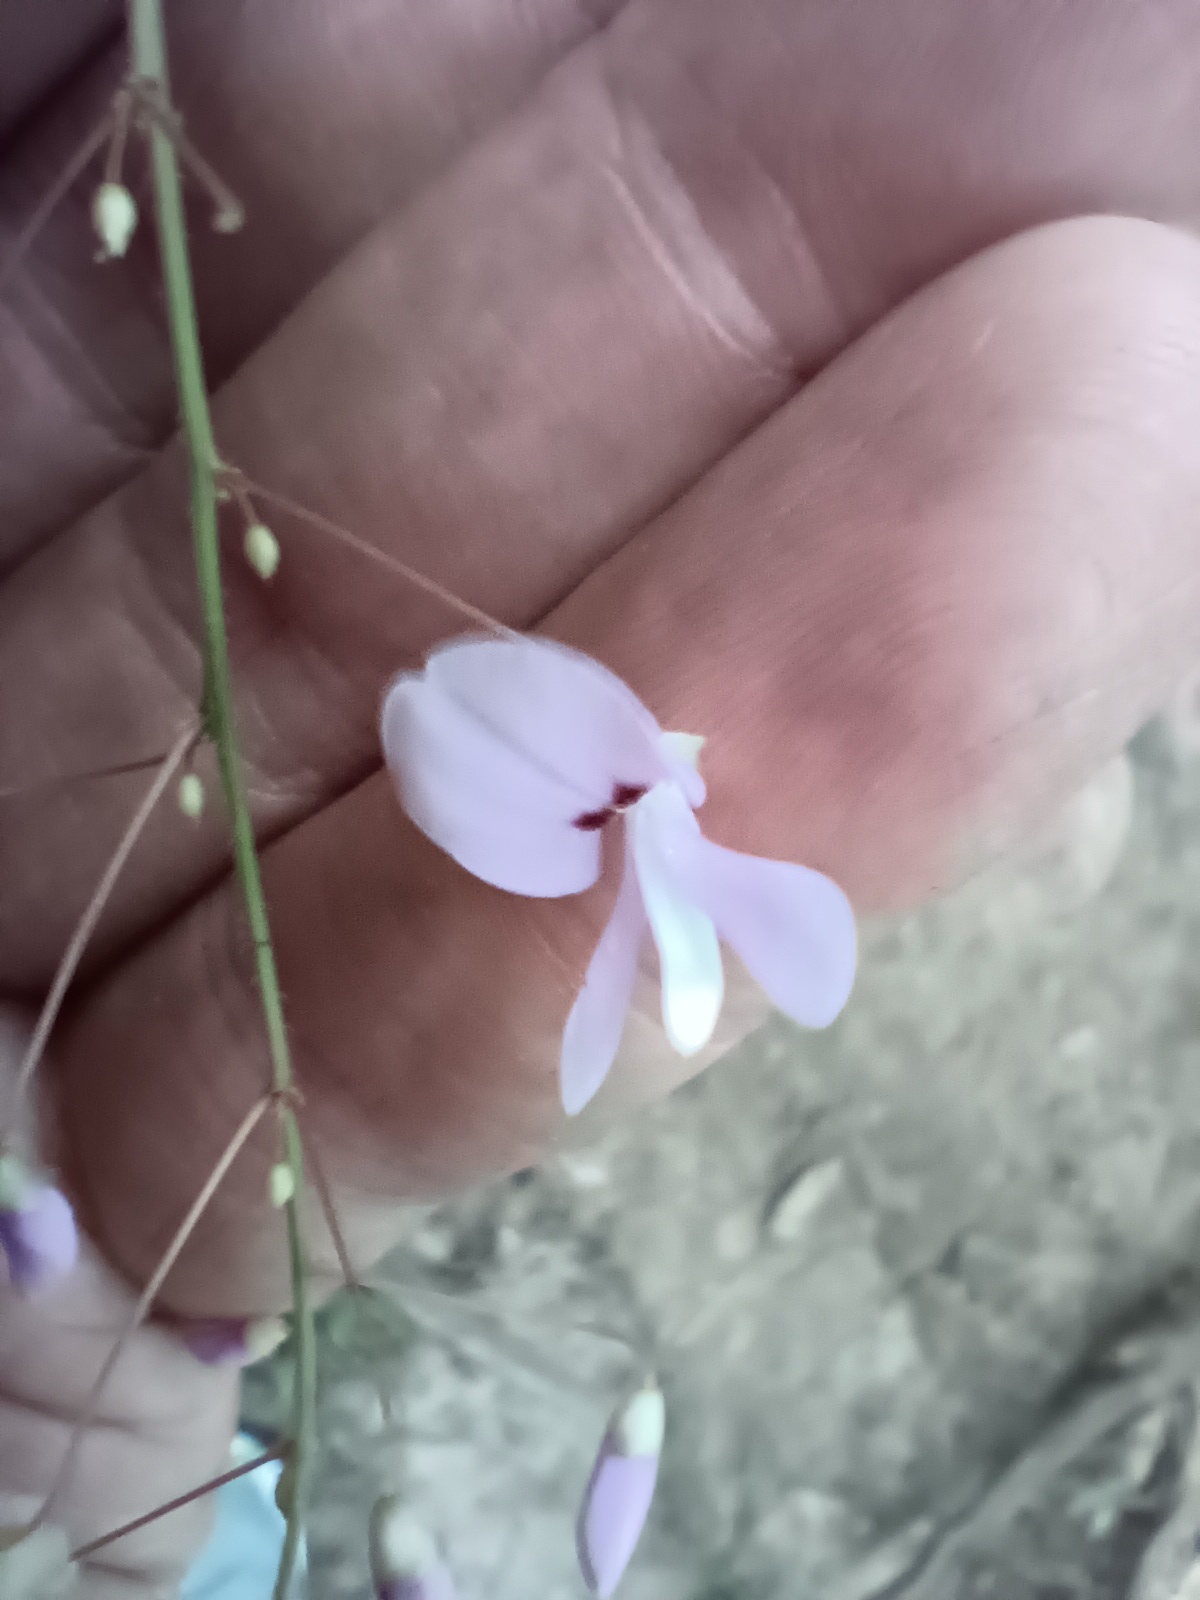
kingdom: Plantae
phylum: Tracheophyta
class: Magnoliopsida
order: Fabales
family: Fabaceae
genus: Hylodesmum
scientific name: Hylodesmum nudiflorum
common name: Bare-stemmed tick-trefoil
